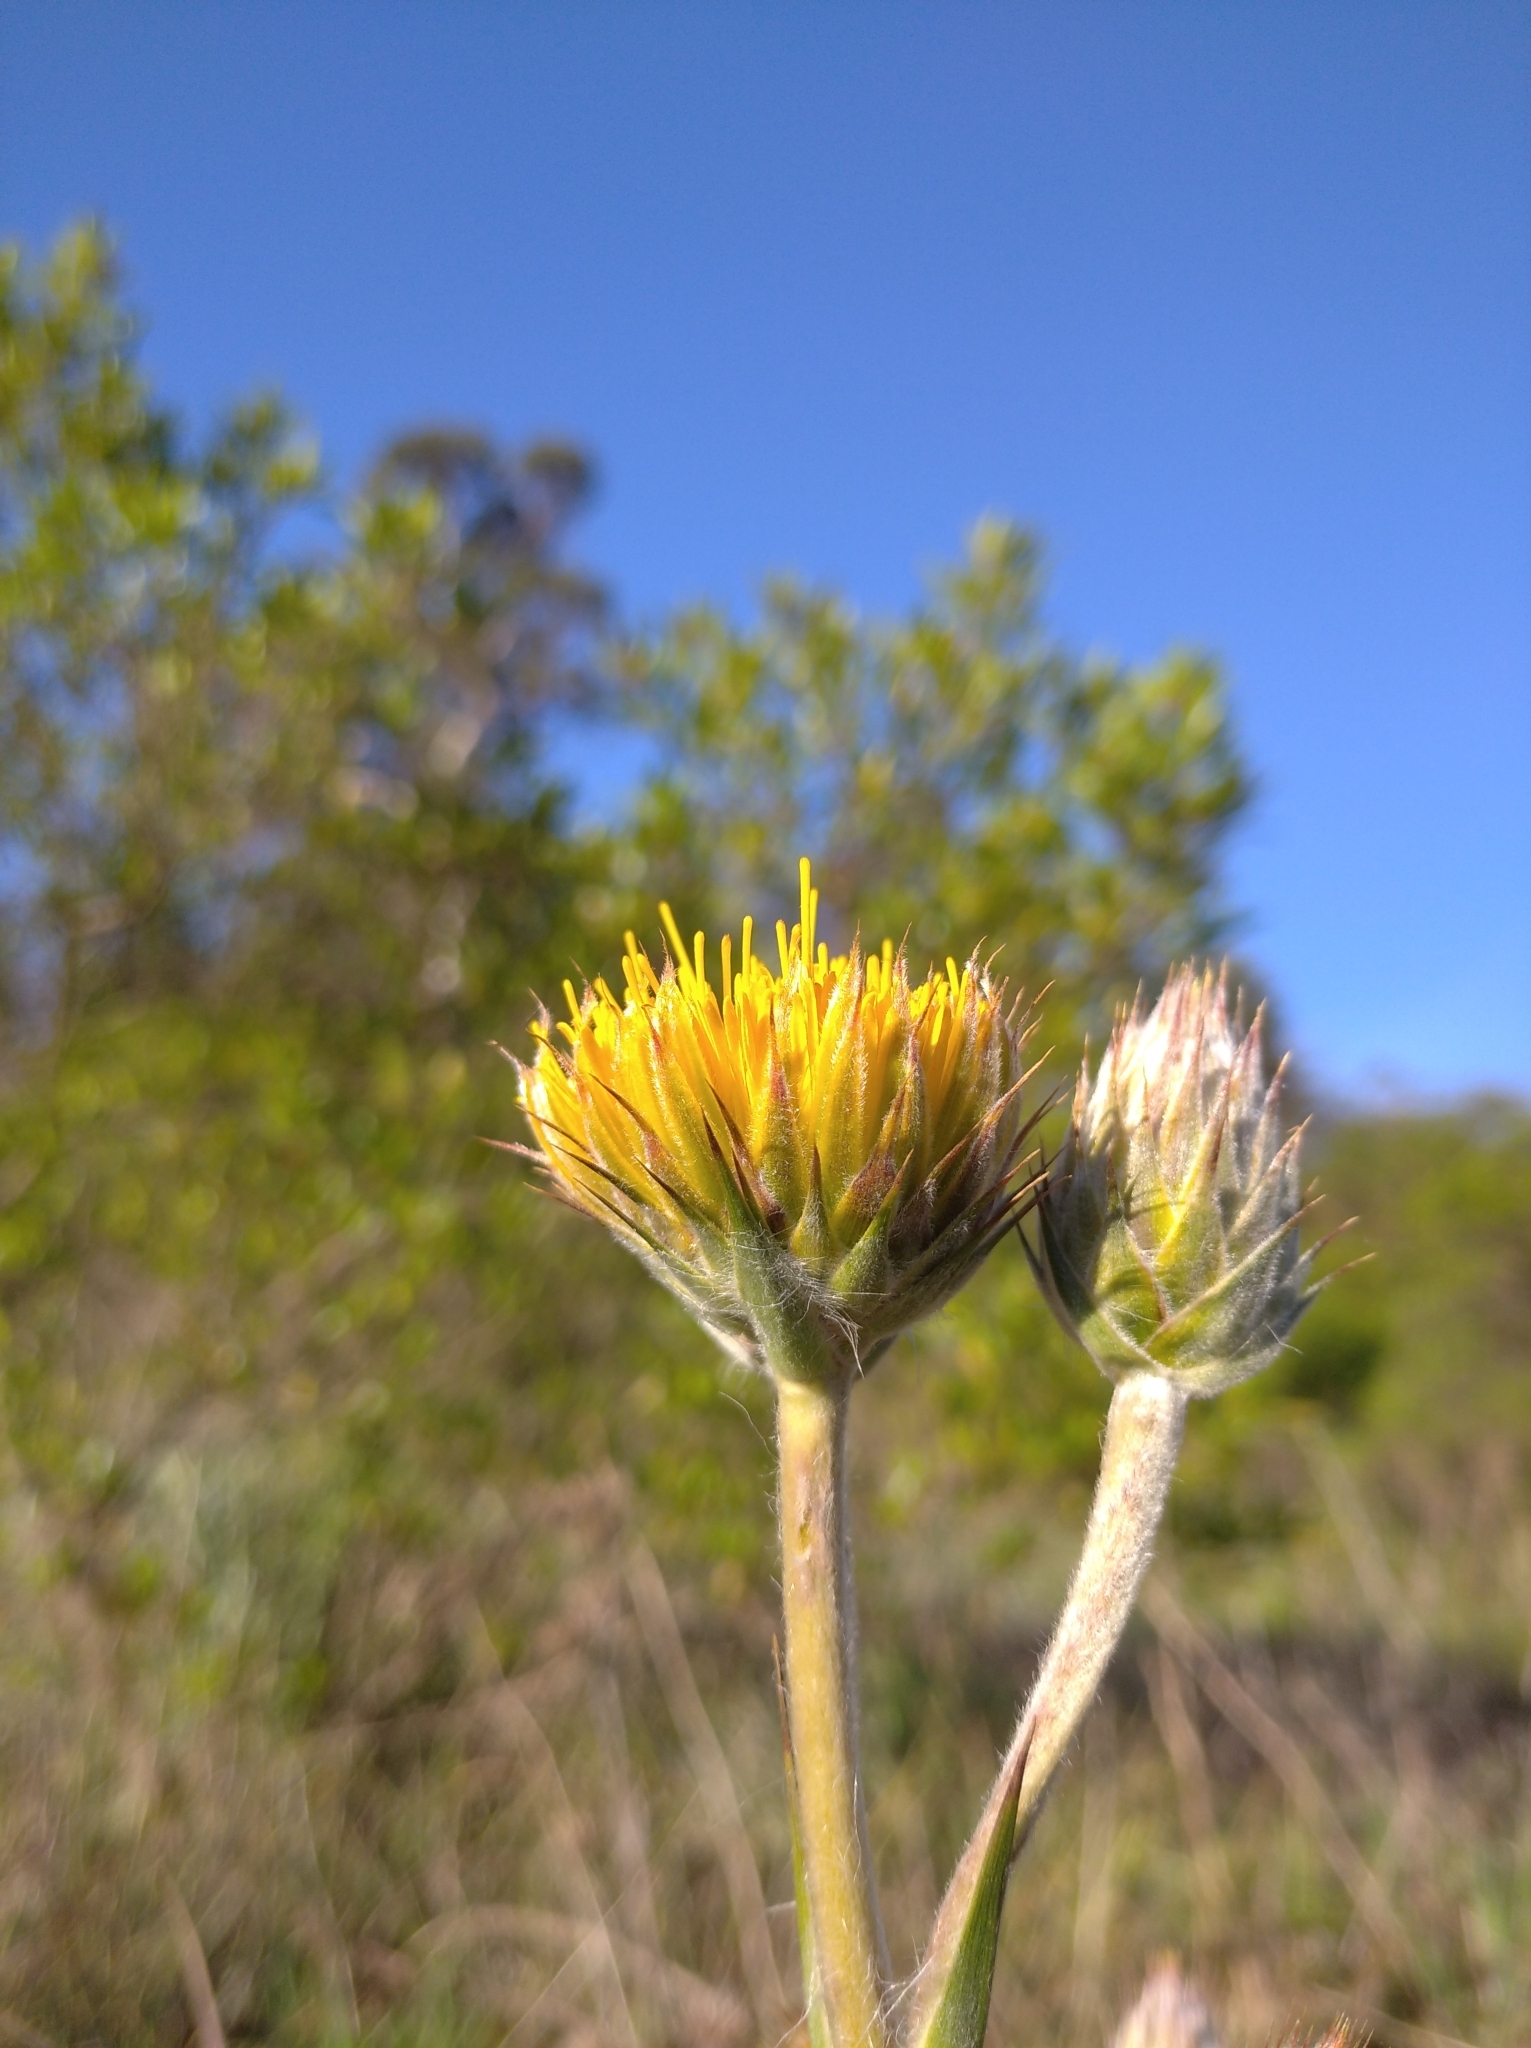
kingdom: Plantae
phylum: Tracheophyta
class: Magnoliopsida
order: Asterales
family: Asteraceae
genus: Schlechtendalia
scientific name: Schlechtendalia luzulifolia
